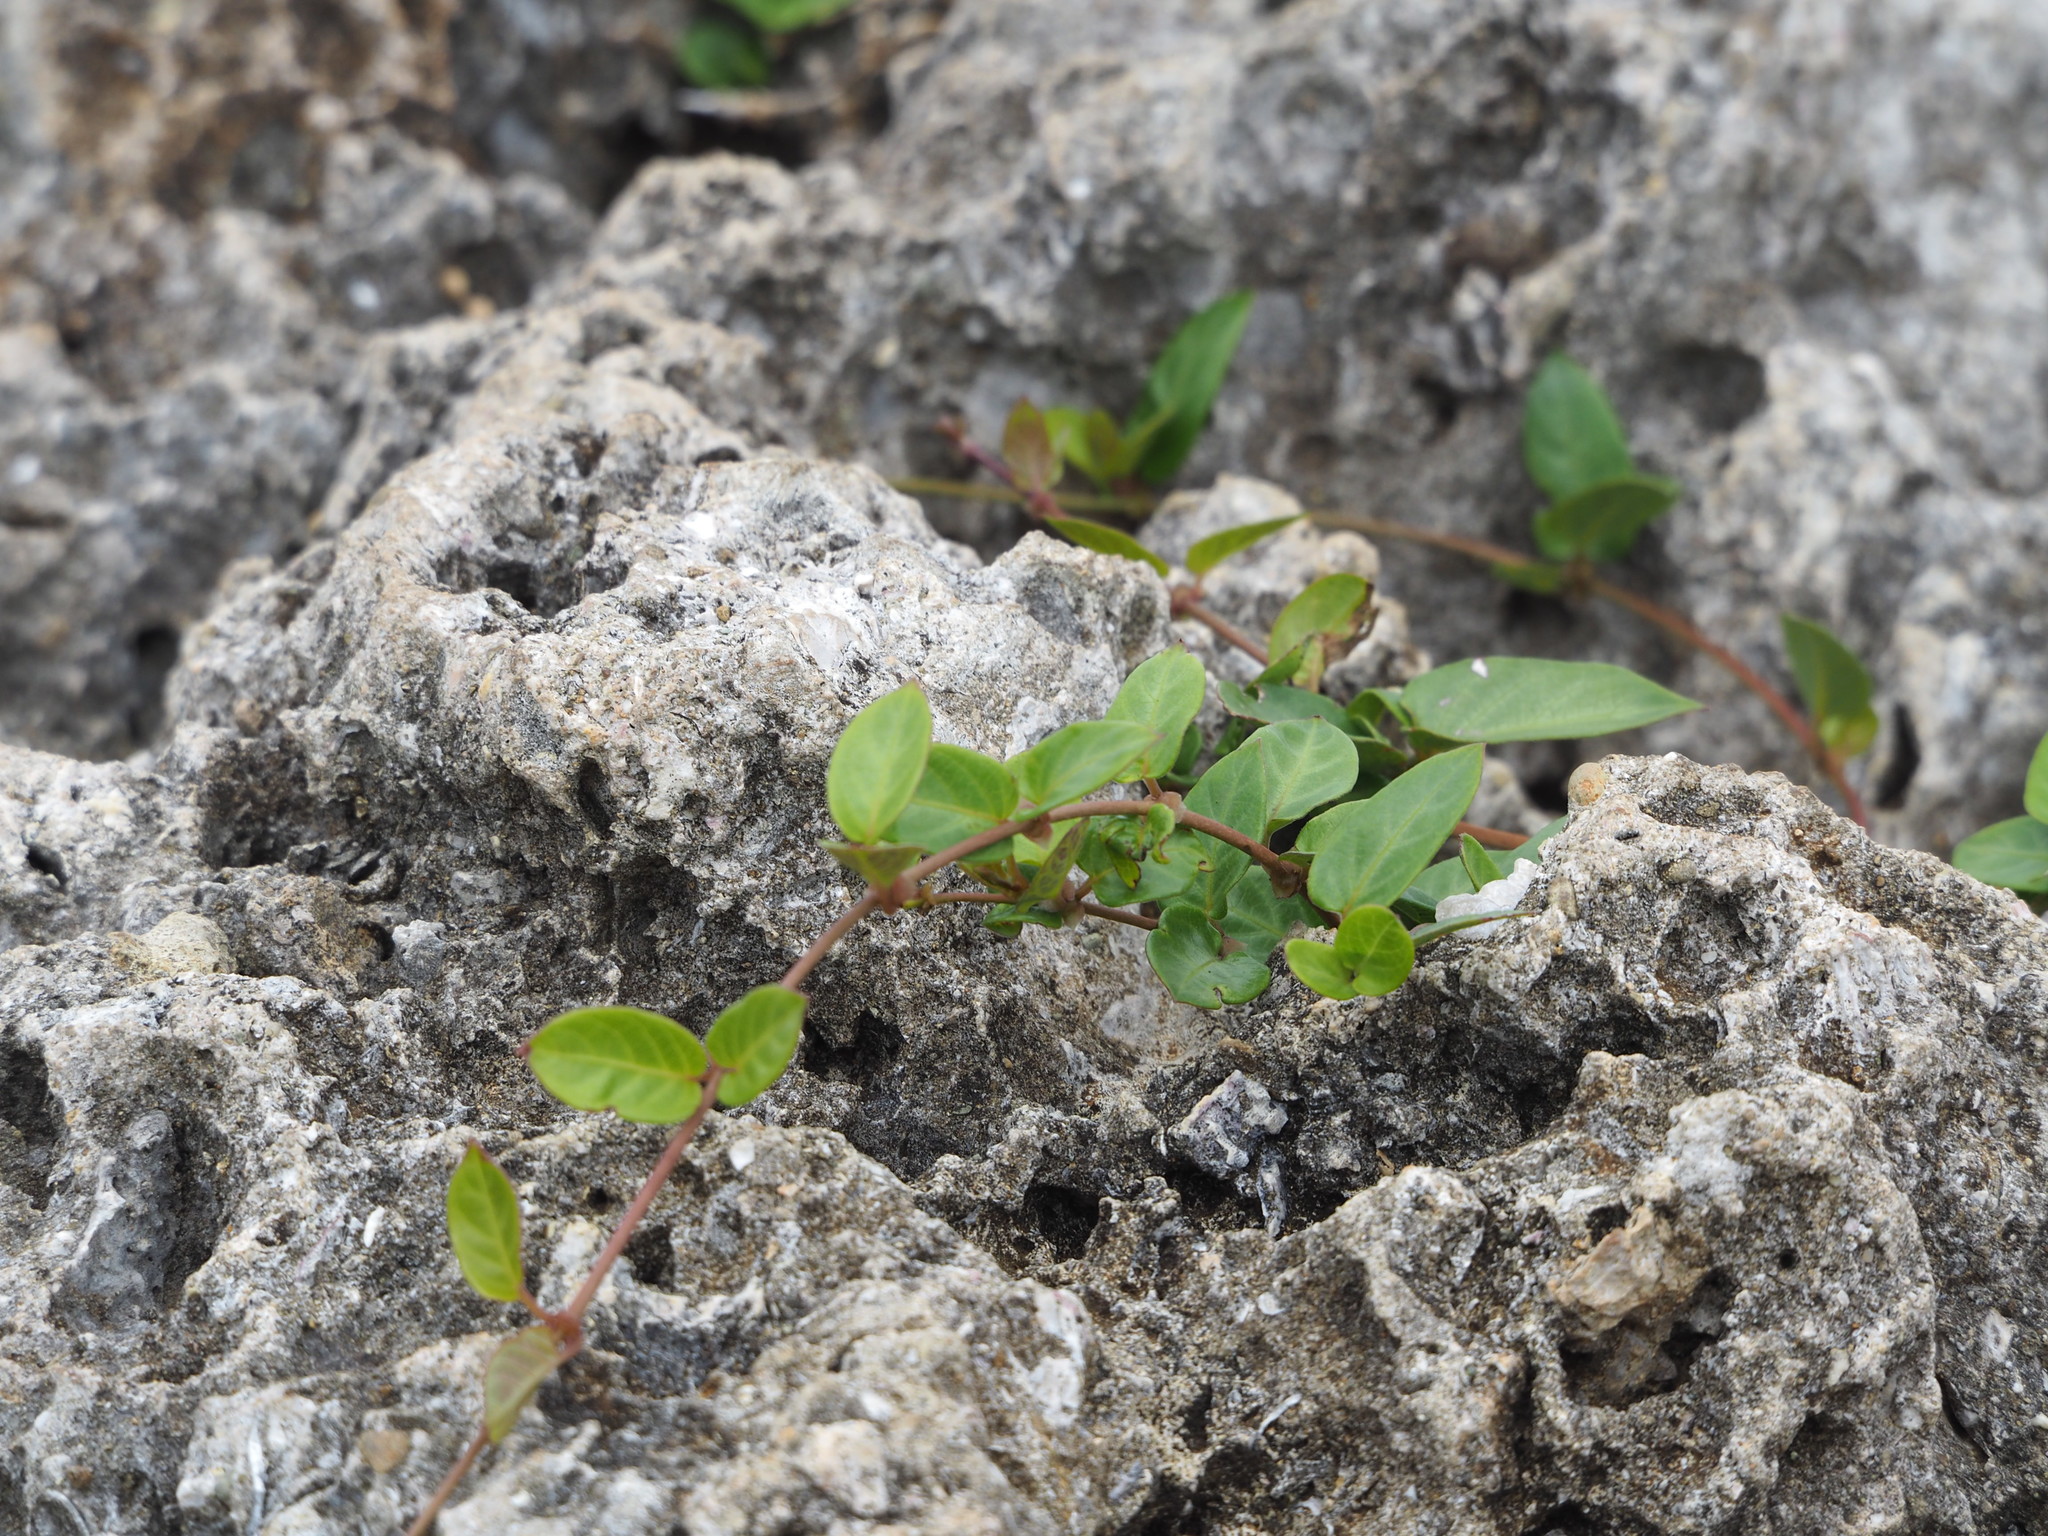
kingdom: Plantae
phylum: Tracheophyta
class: Magnoliopsida
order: Gentianales
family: Rubiaceae
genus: Paederia
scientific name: Paederia foetida
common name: Stinkvine
